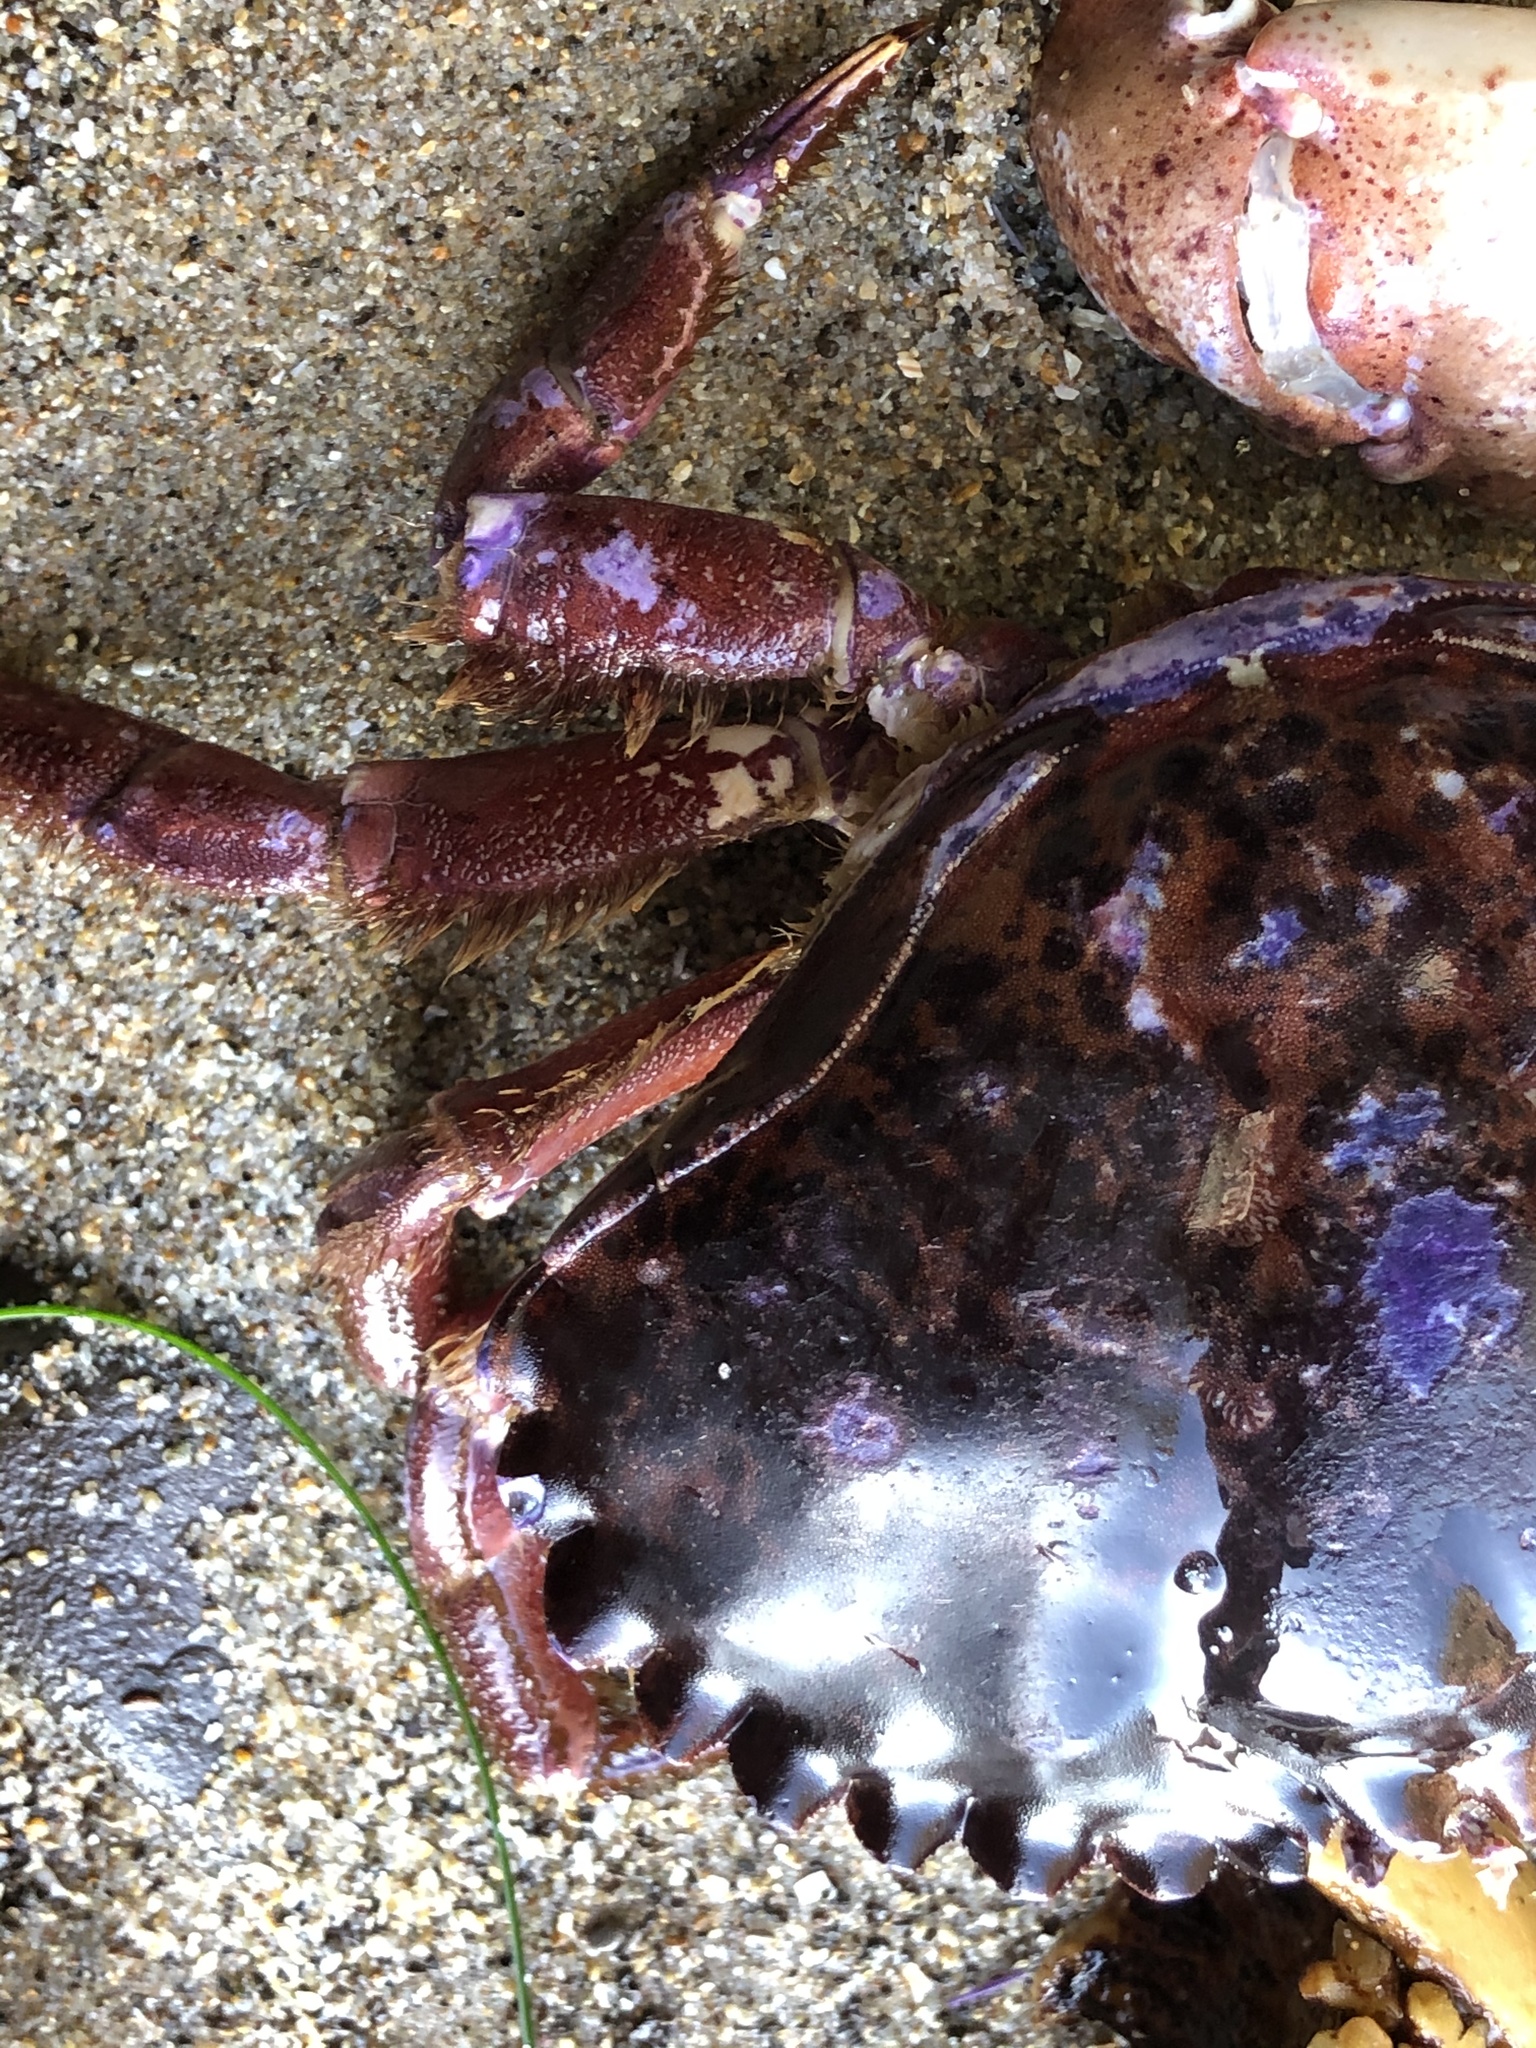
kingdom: Animalia
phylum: Arthropoda
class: Malacostraca
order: Decapoda
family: Cancridae
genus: Romaleon
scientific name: Romaleon antennarium
